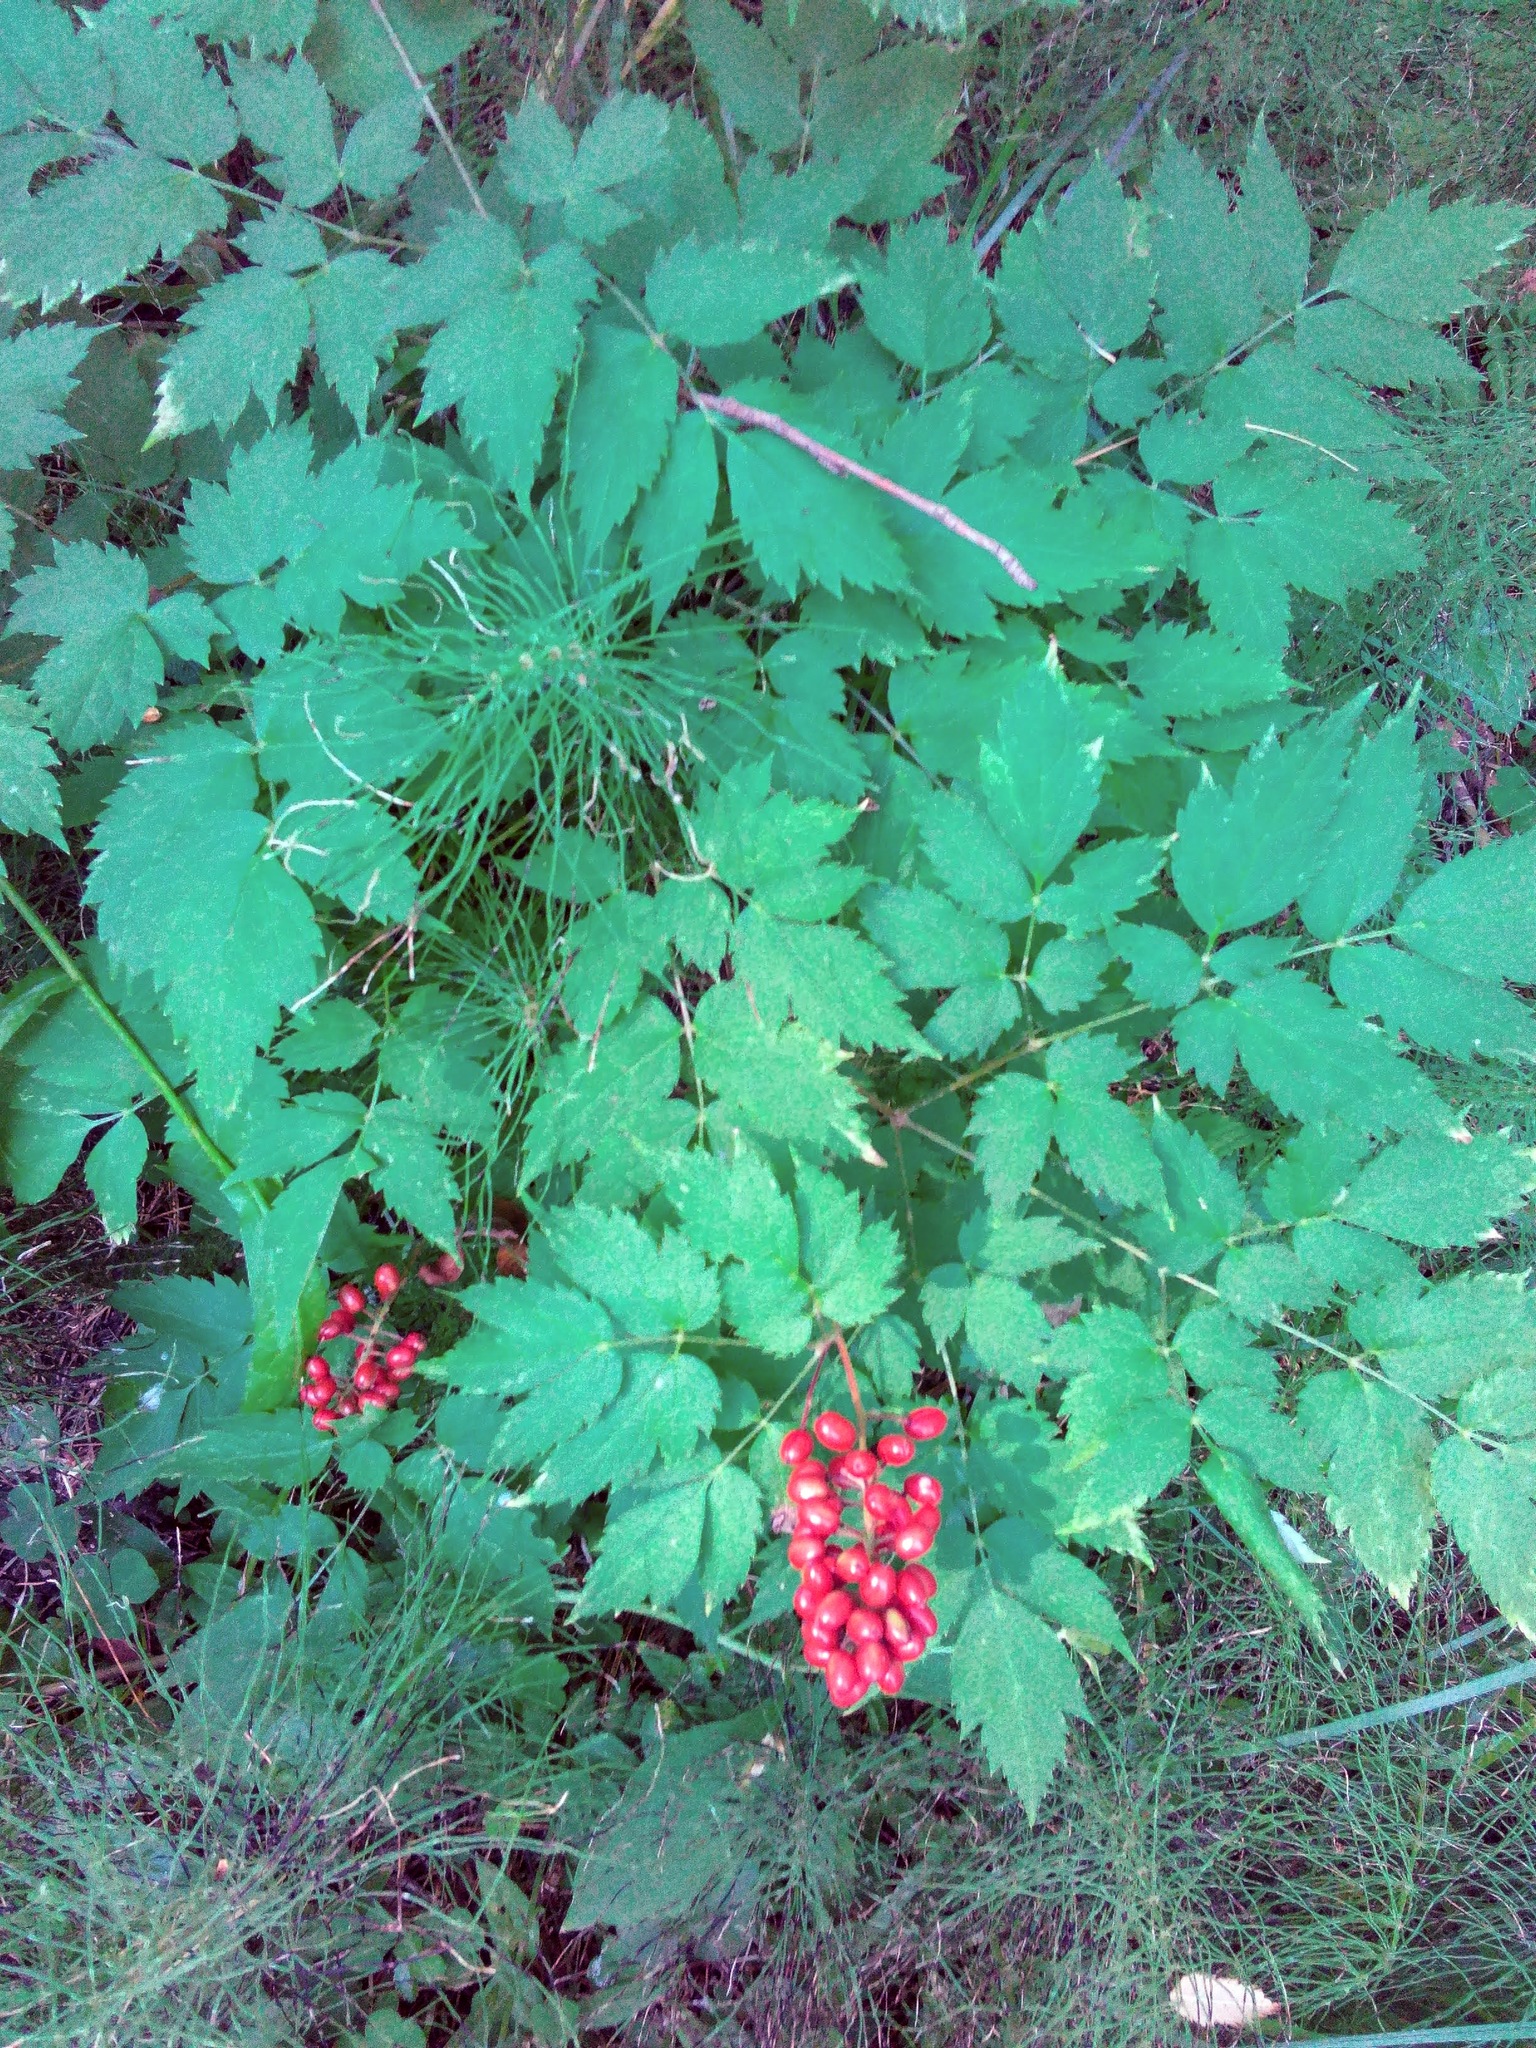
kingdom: Plantae
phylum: Tracheophyta
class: Magnoliopsida
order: Ranunculales
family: Ranunculaceae
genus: Actaea
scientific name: Actaea erythrocarpa
